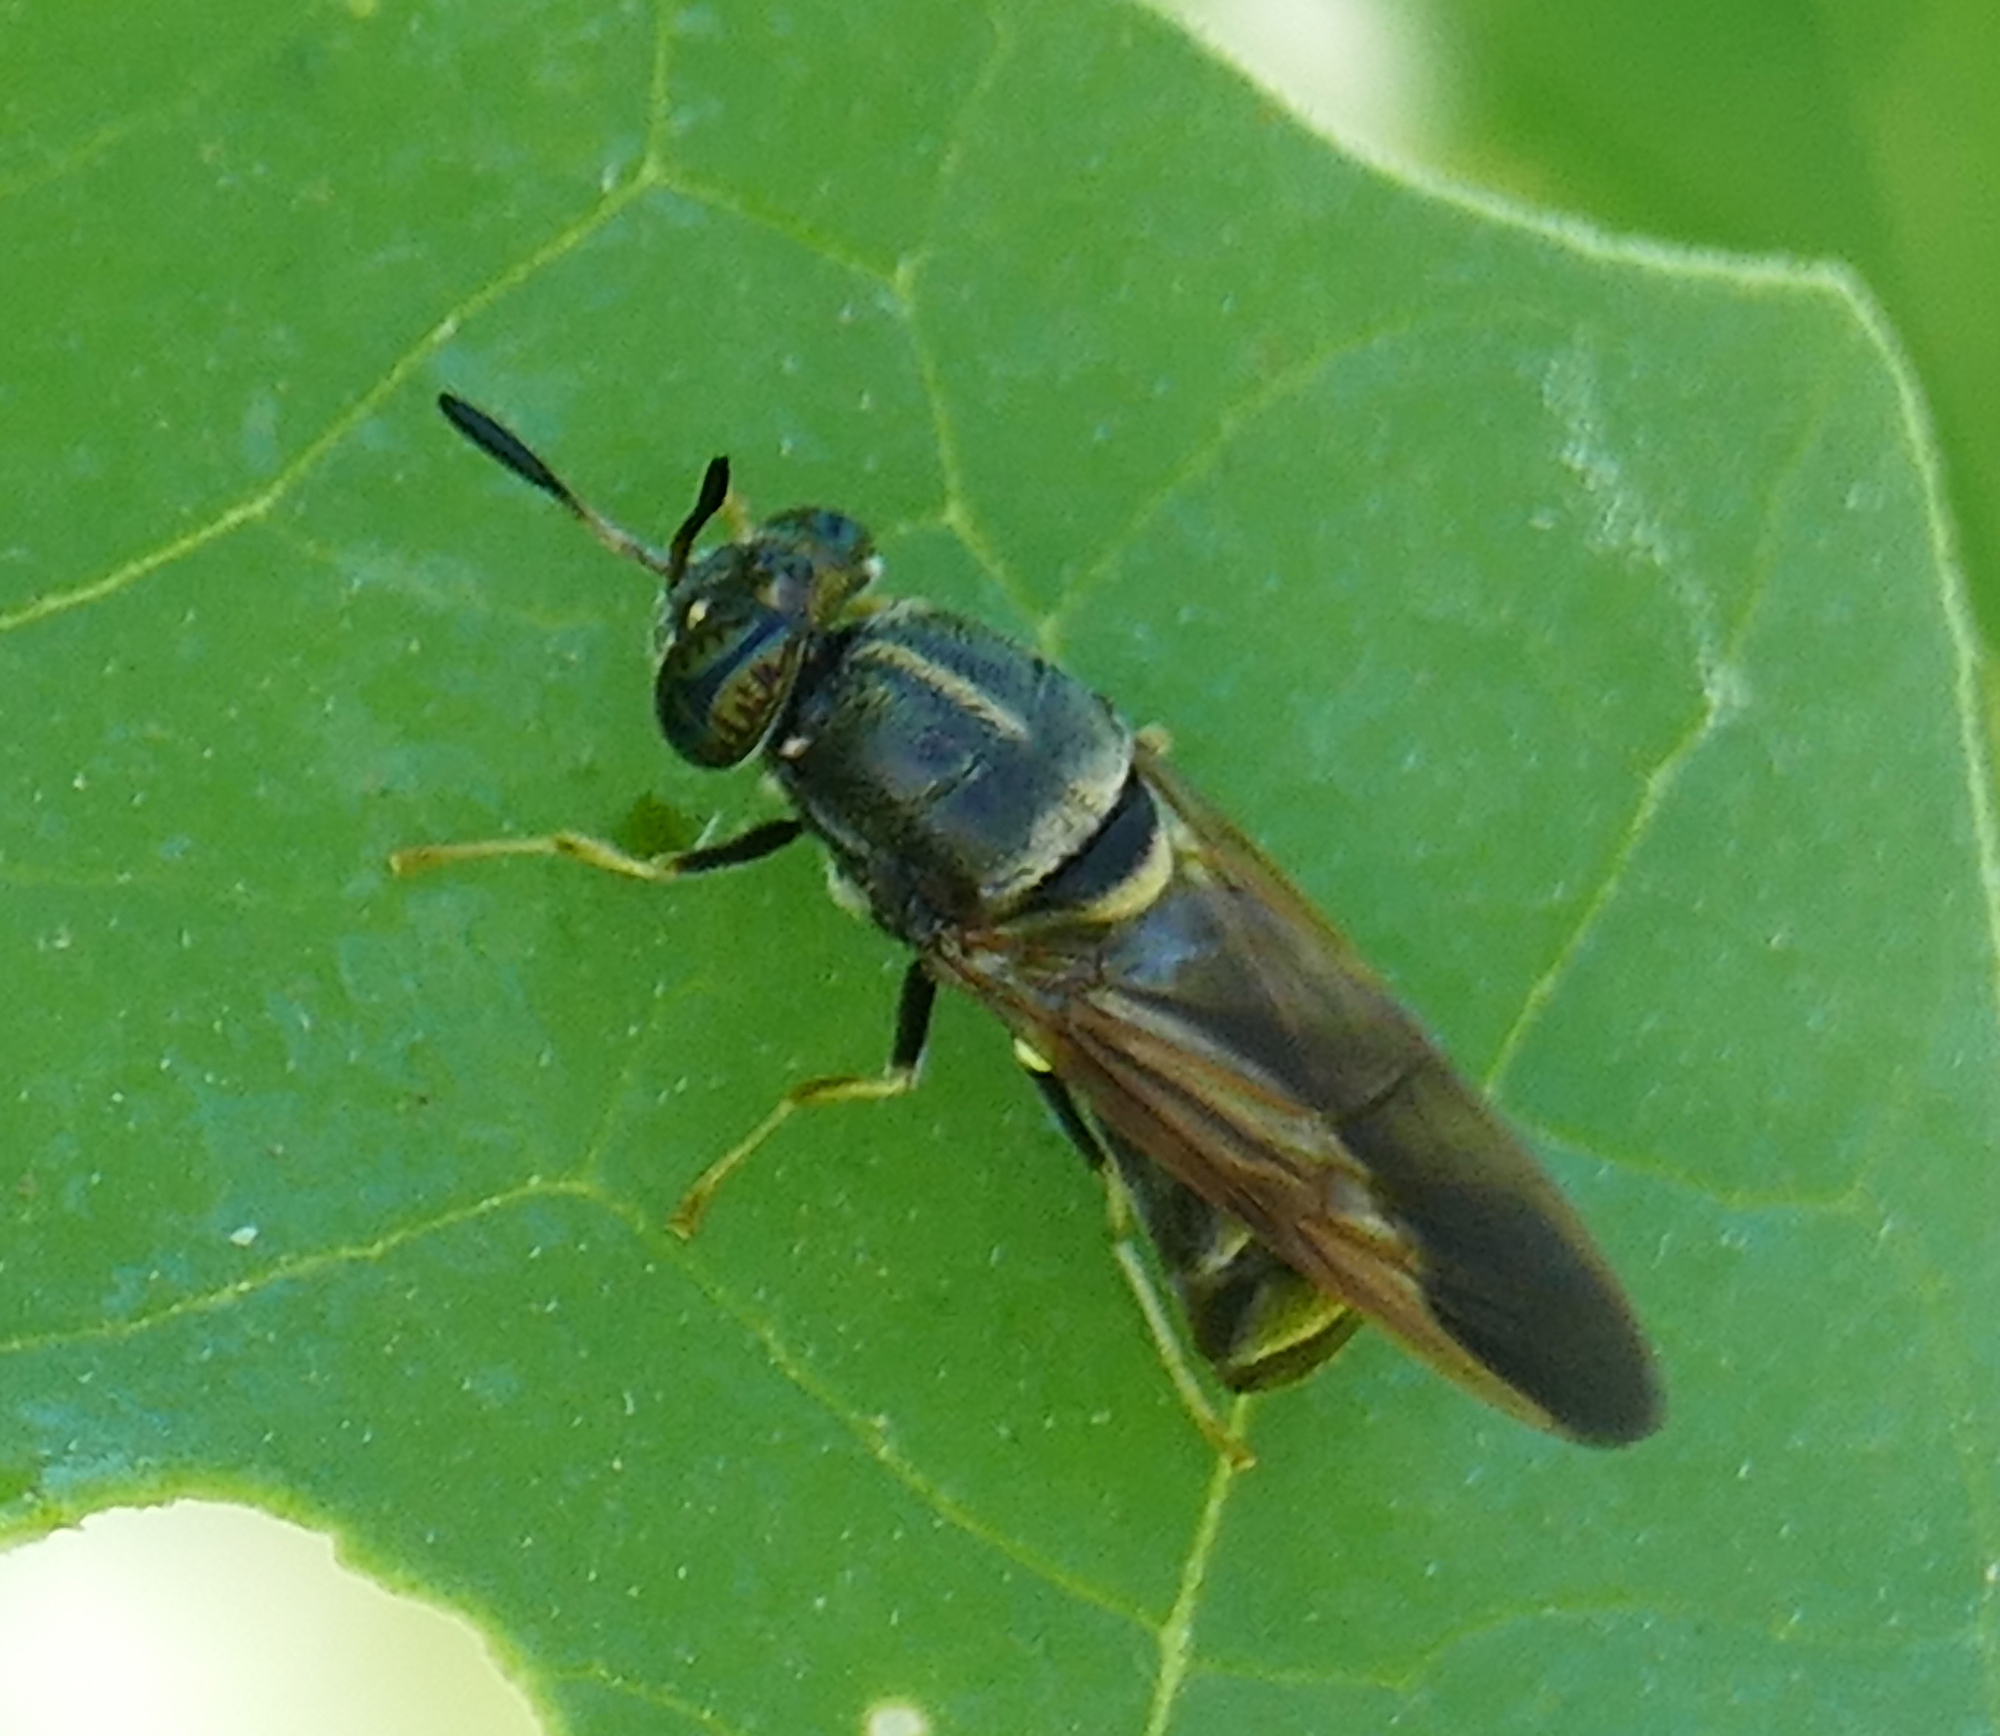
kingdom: Animalia
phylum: Arthropoda
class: Insecta
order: Diptera
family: Stratiomyidae
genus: Hermetia
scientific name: Hermetia subpellucida
